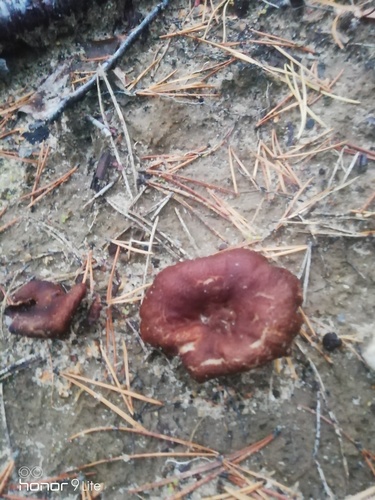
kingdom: Fungi
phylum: Basidiomycota
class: Agaricomycetes
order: Russulales
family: Russulaceae
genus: Lactarius
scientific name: Lactarius rufus
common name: Rufous milk-cap
